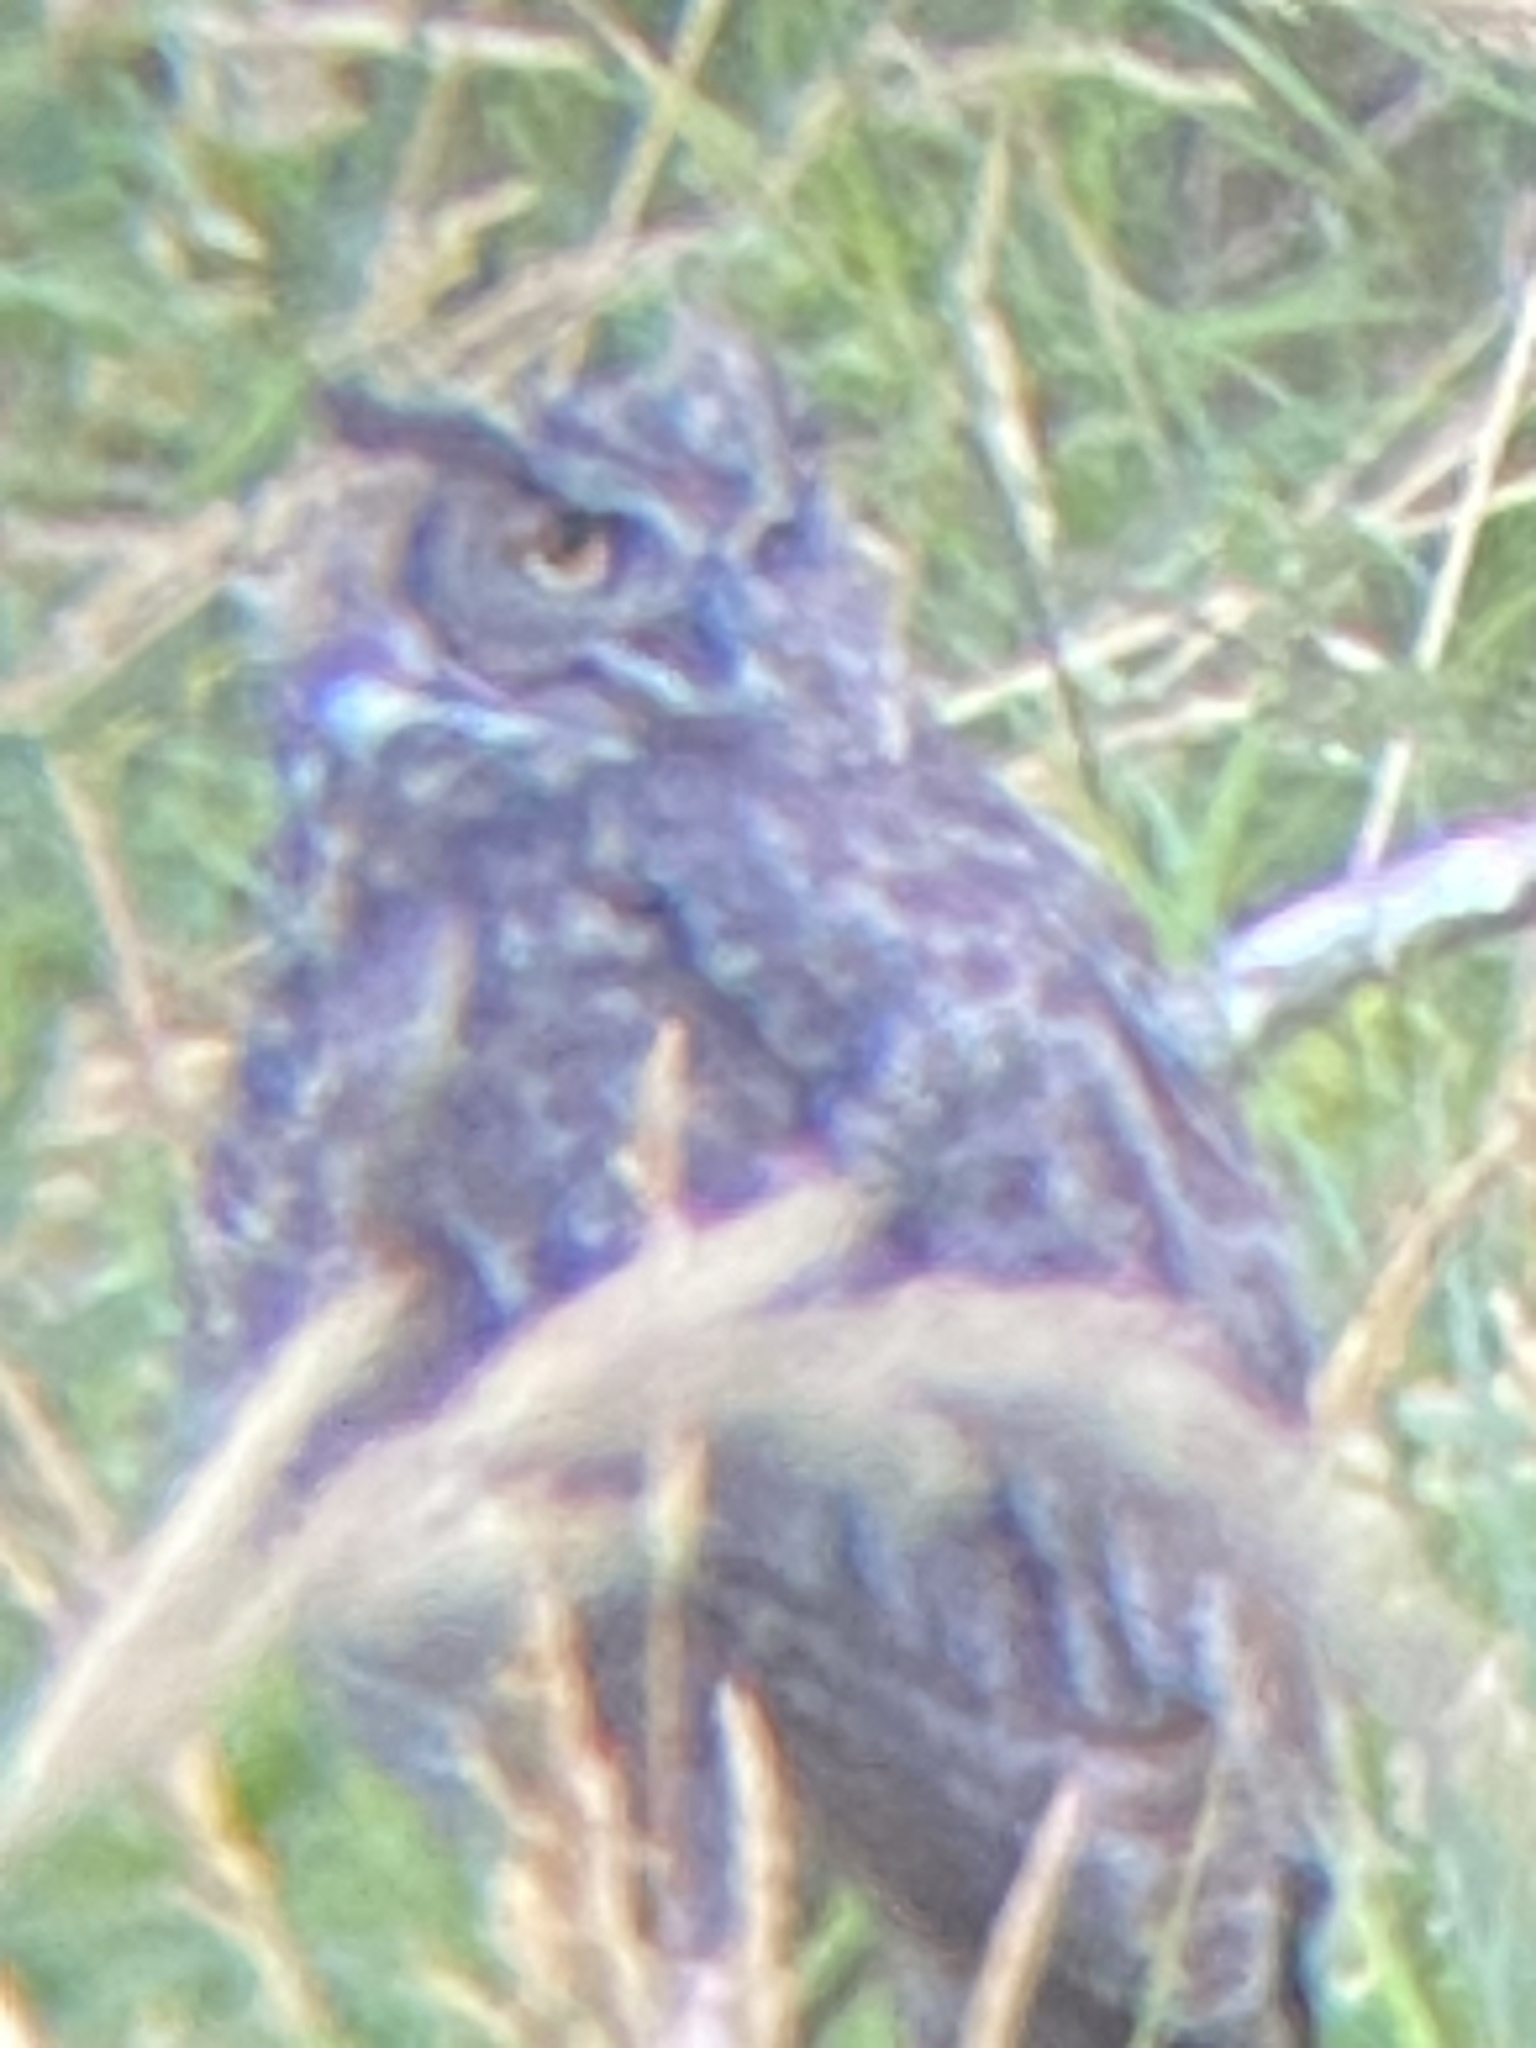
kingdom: Animalia
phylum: Chordata
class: Aves
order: Strigiformes
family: Strigidae
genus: Bubo
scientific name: Bubo virginianus
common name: Great horned owl
